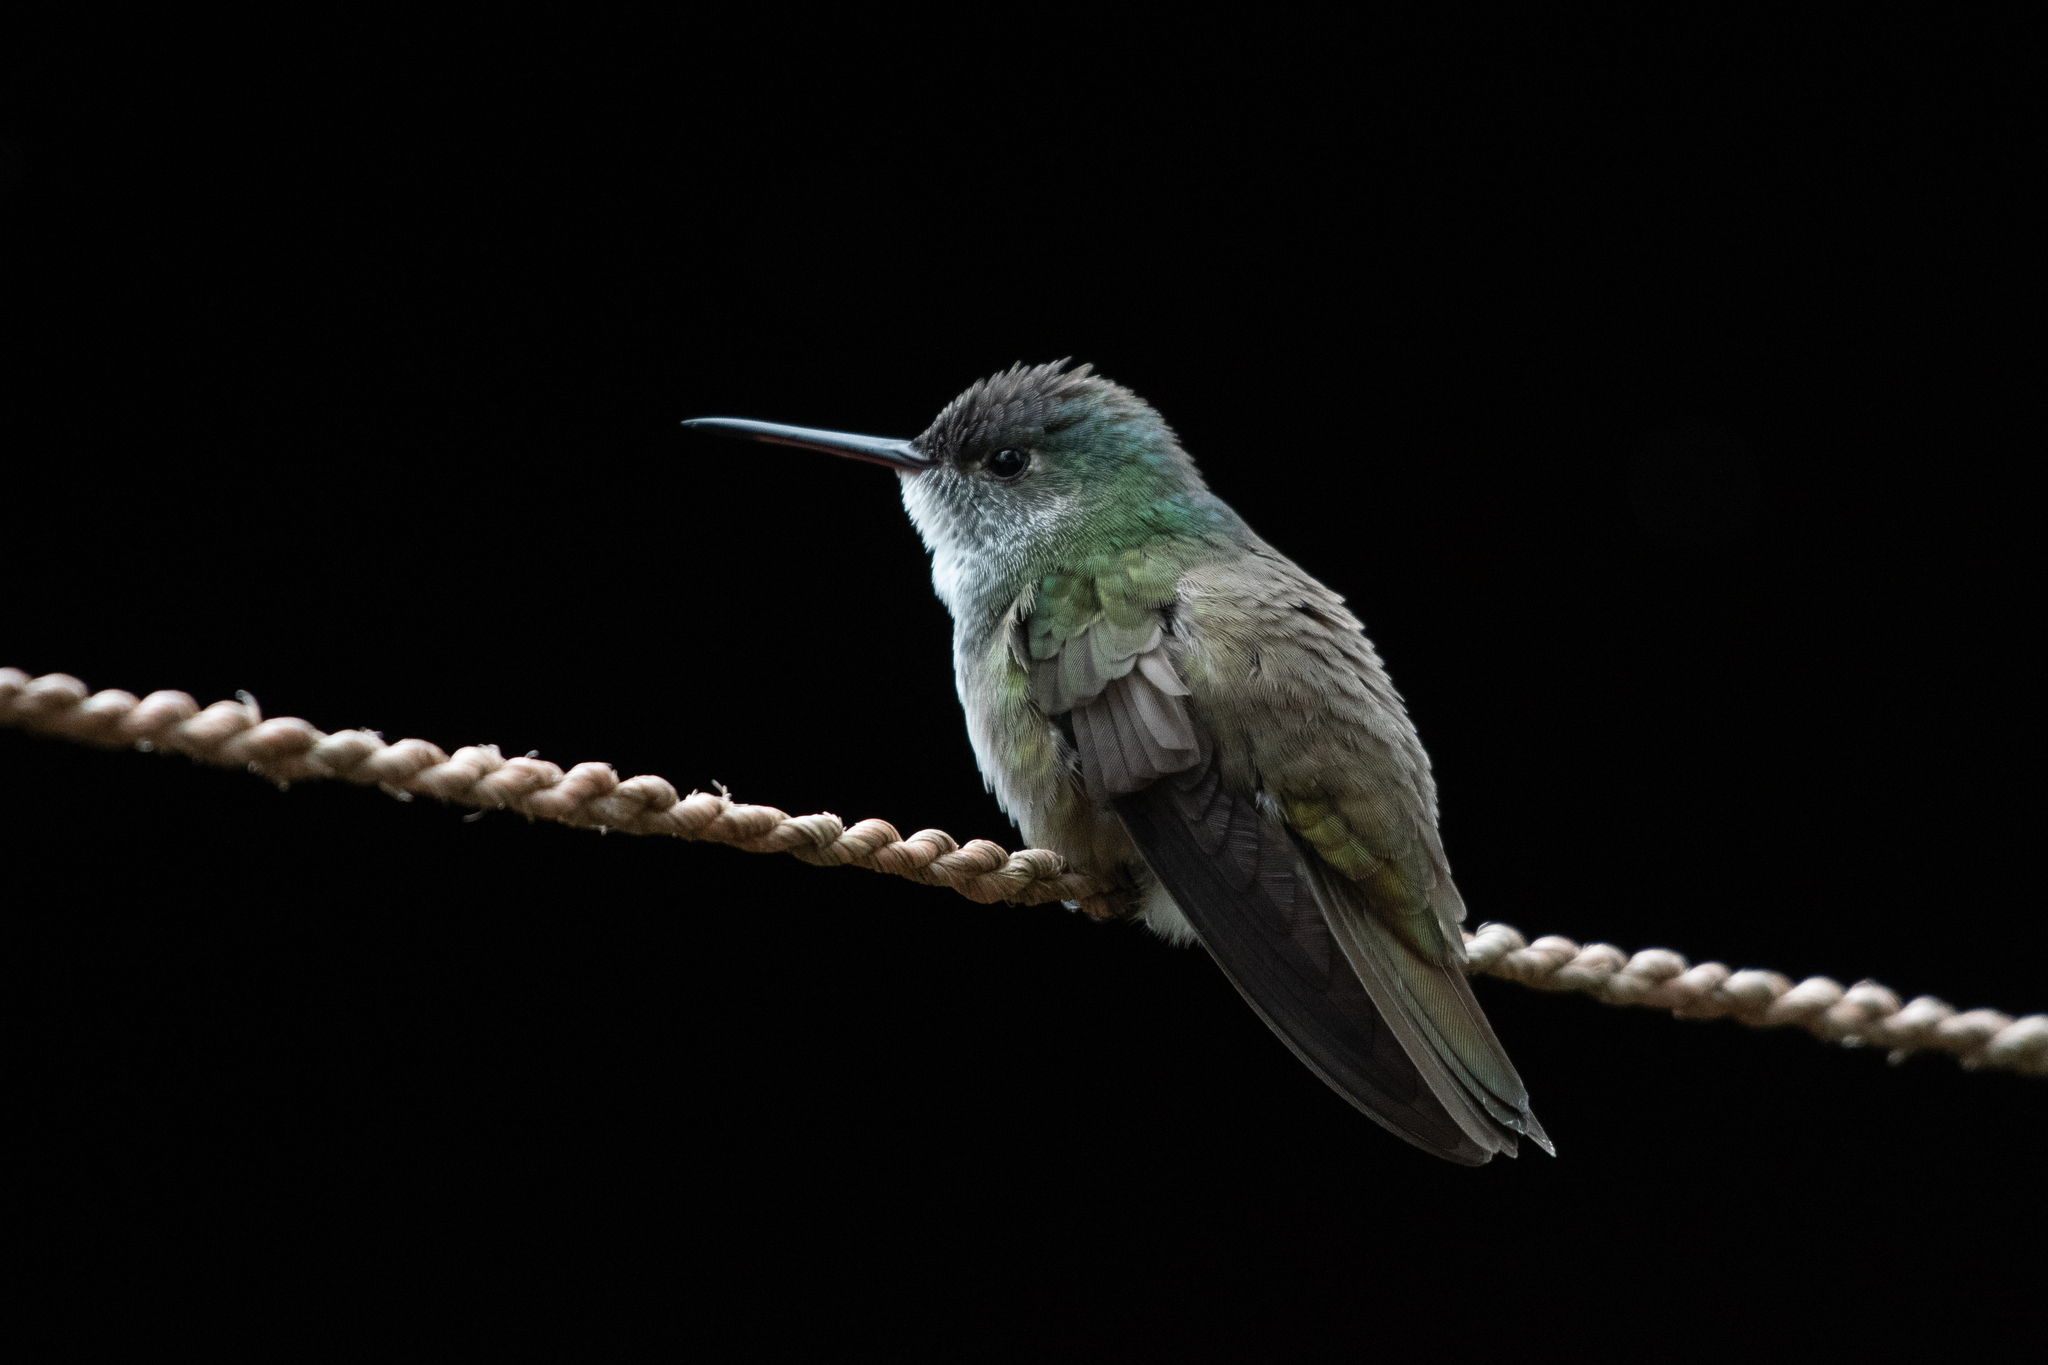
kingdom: Animalia
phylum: Chordata
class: Aves
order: Apodiformes
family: Trochilidae
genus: Saucerottia
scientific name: Saucerottia cyanocephala
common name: Azure-crowned hummingbird
